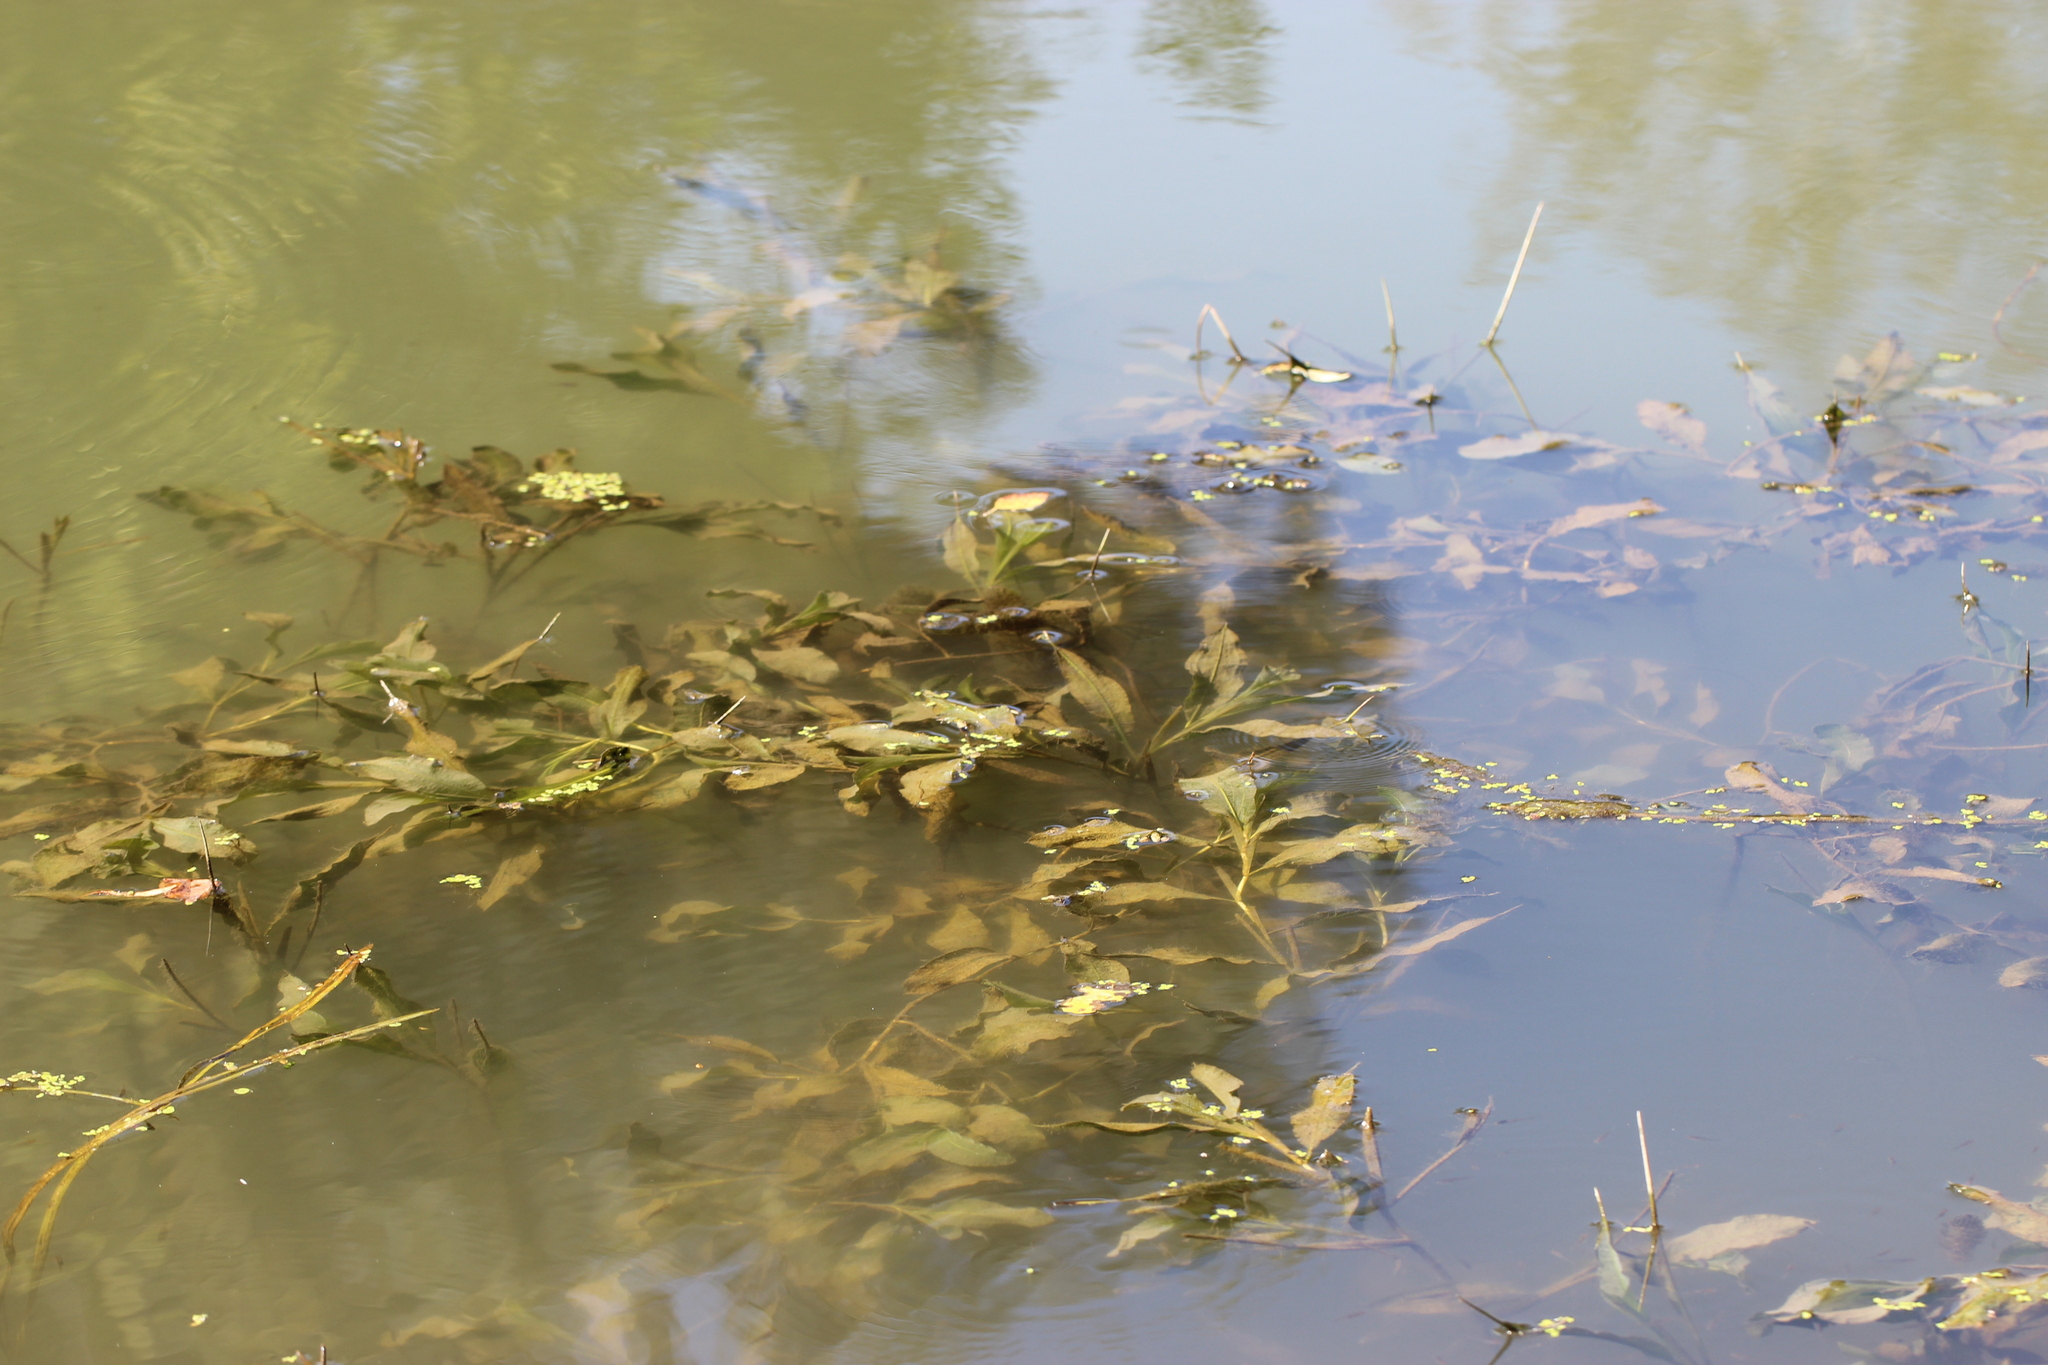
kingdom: Plantae
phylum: Tracheophyta
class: Liliopsida
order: Alismatales
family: Potamogetonaceae
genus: Potamogeton
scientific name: Potamogeton lucens
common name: Shining pondweed
